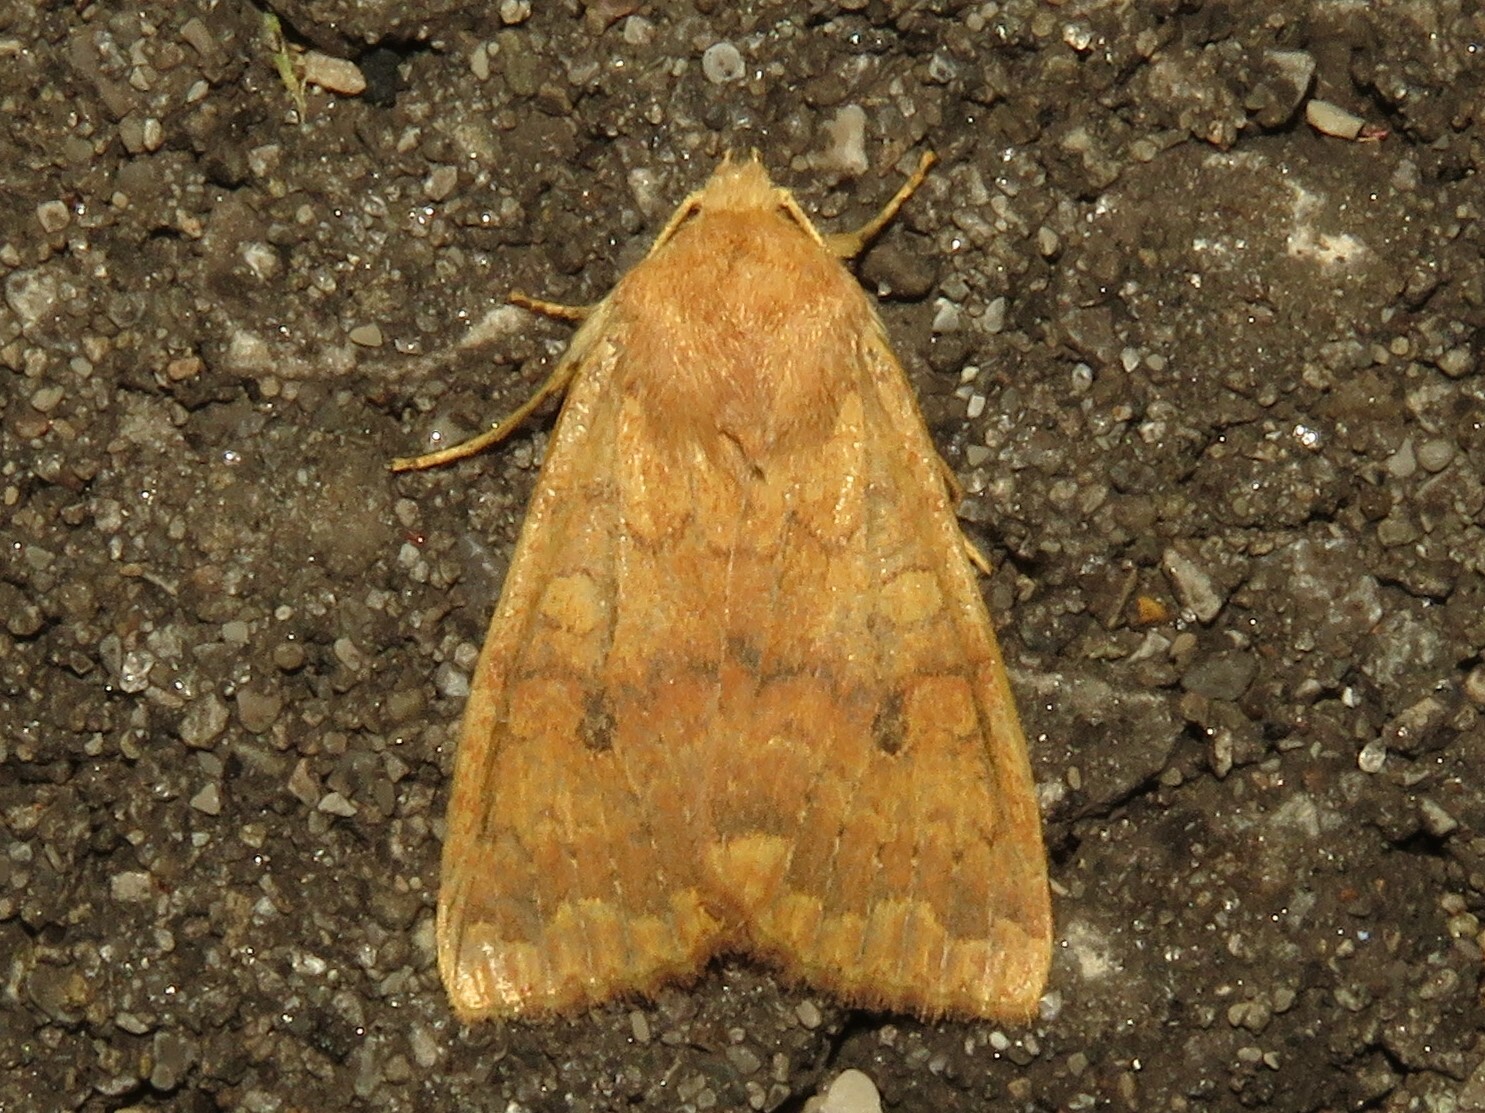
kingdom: Animalia
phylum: Arthropoda
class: Insecta
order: Lepidoptera
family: Noctuidae
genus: Agrochola
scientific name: Agrochola bicolorago
